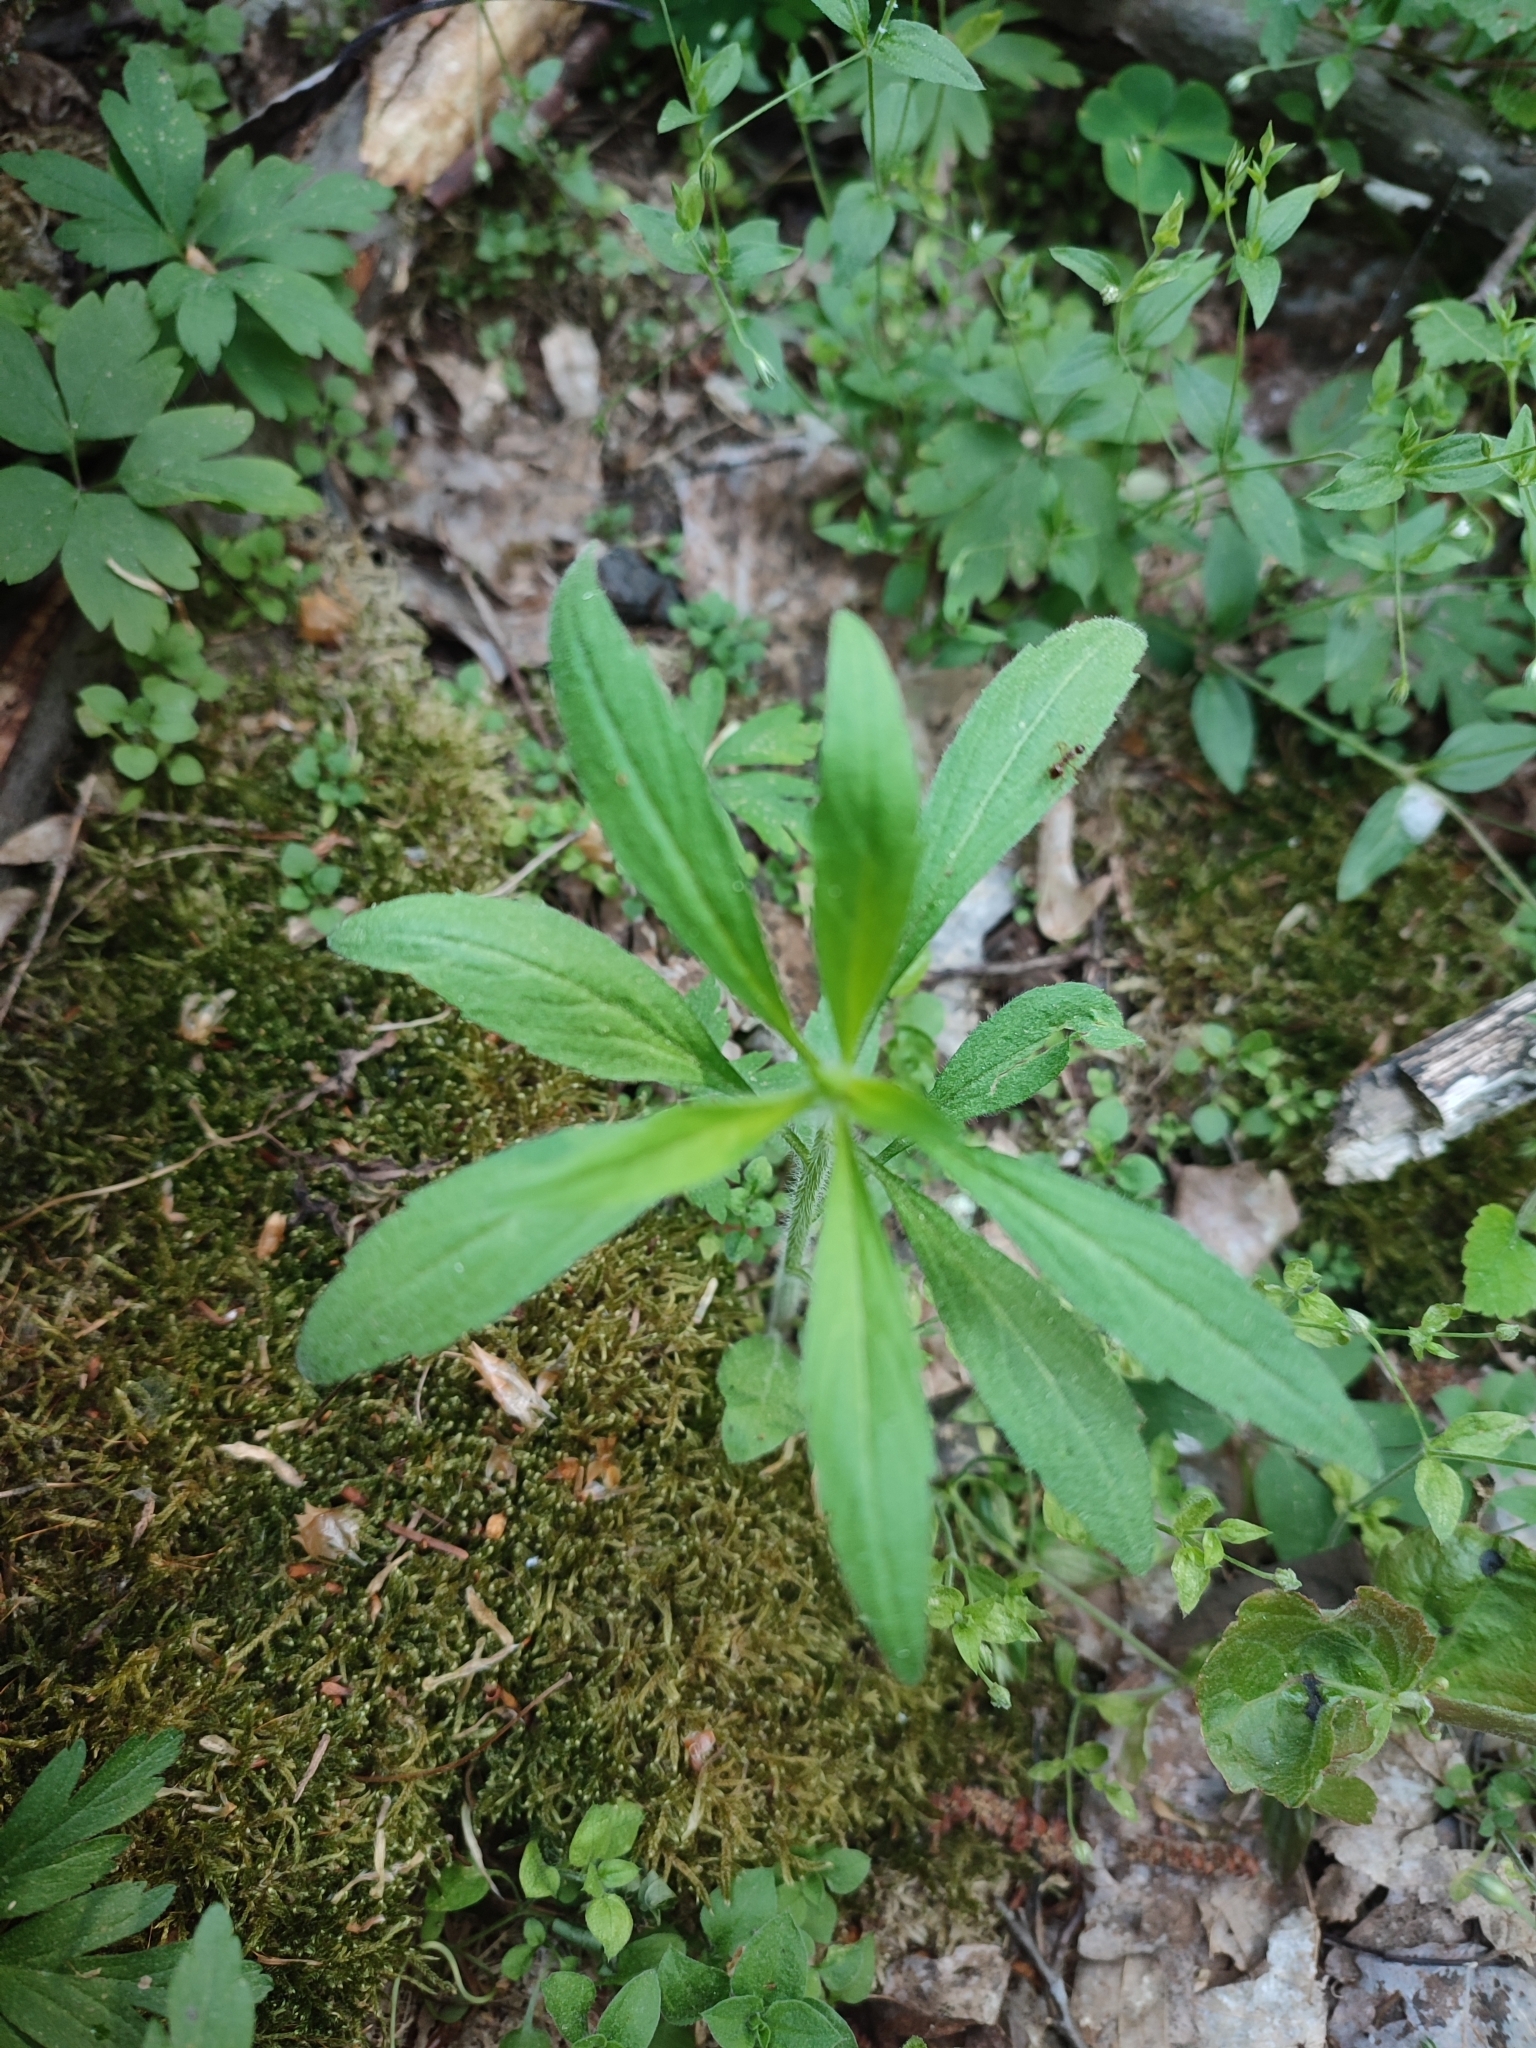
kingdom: Plantae
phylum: Tracheophyta
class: Magnoliopsida
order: Asterales
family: Asteraceae
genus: Erigeron
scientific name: Erigeron canadensis
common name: Canadian fleabane
